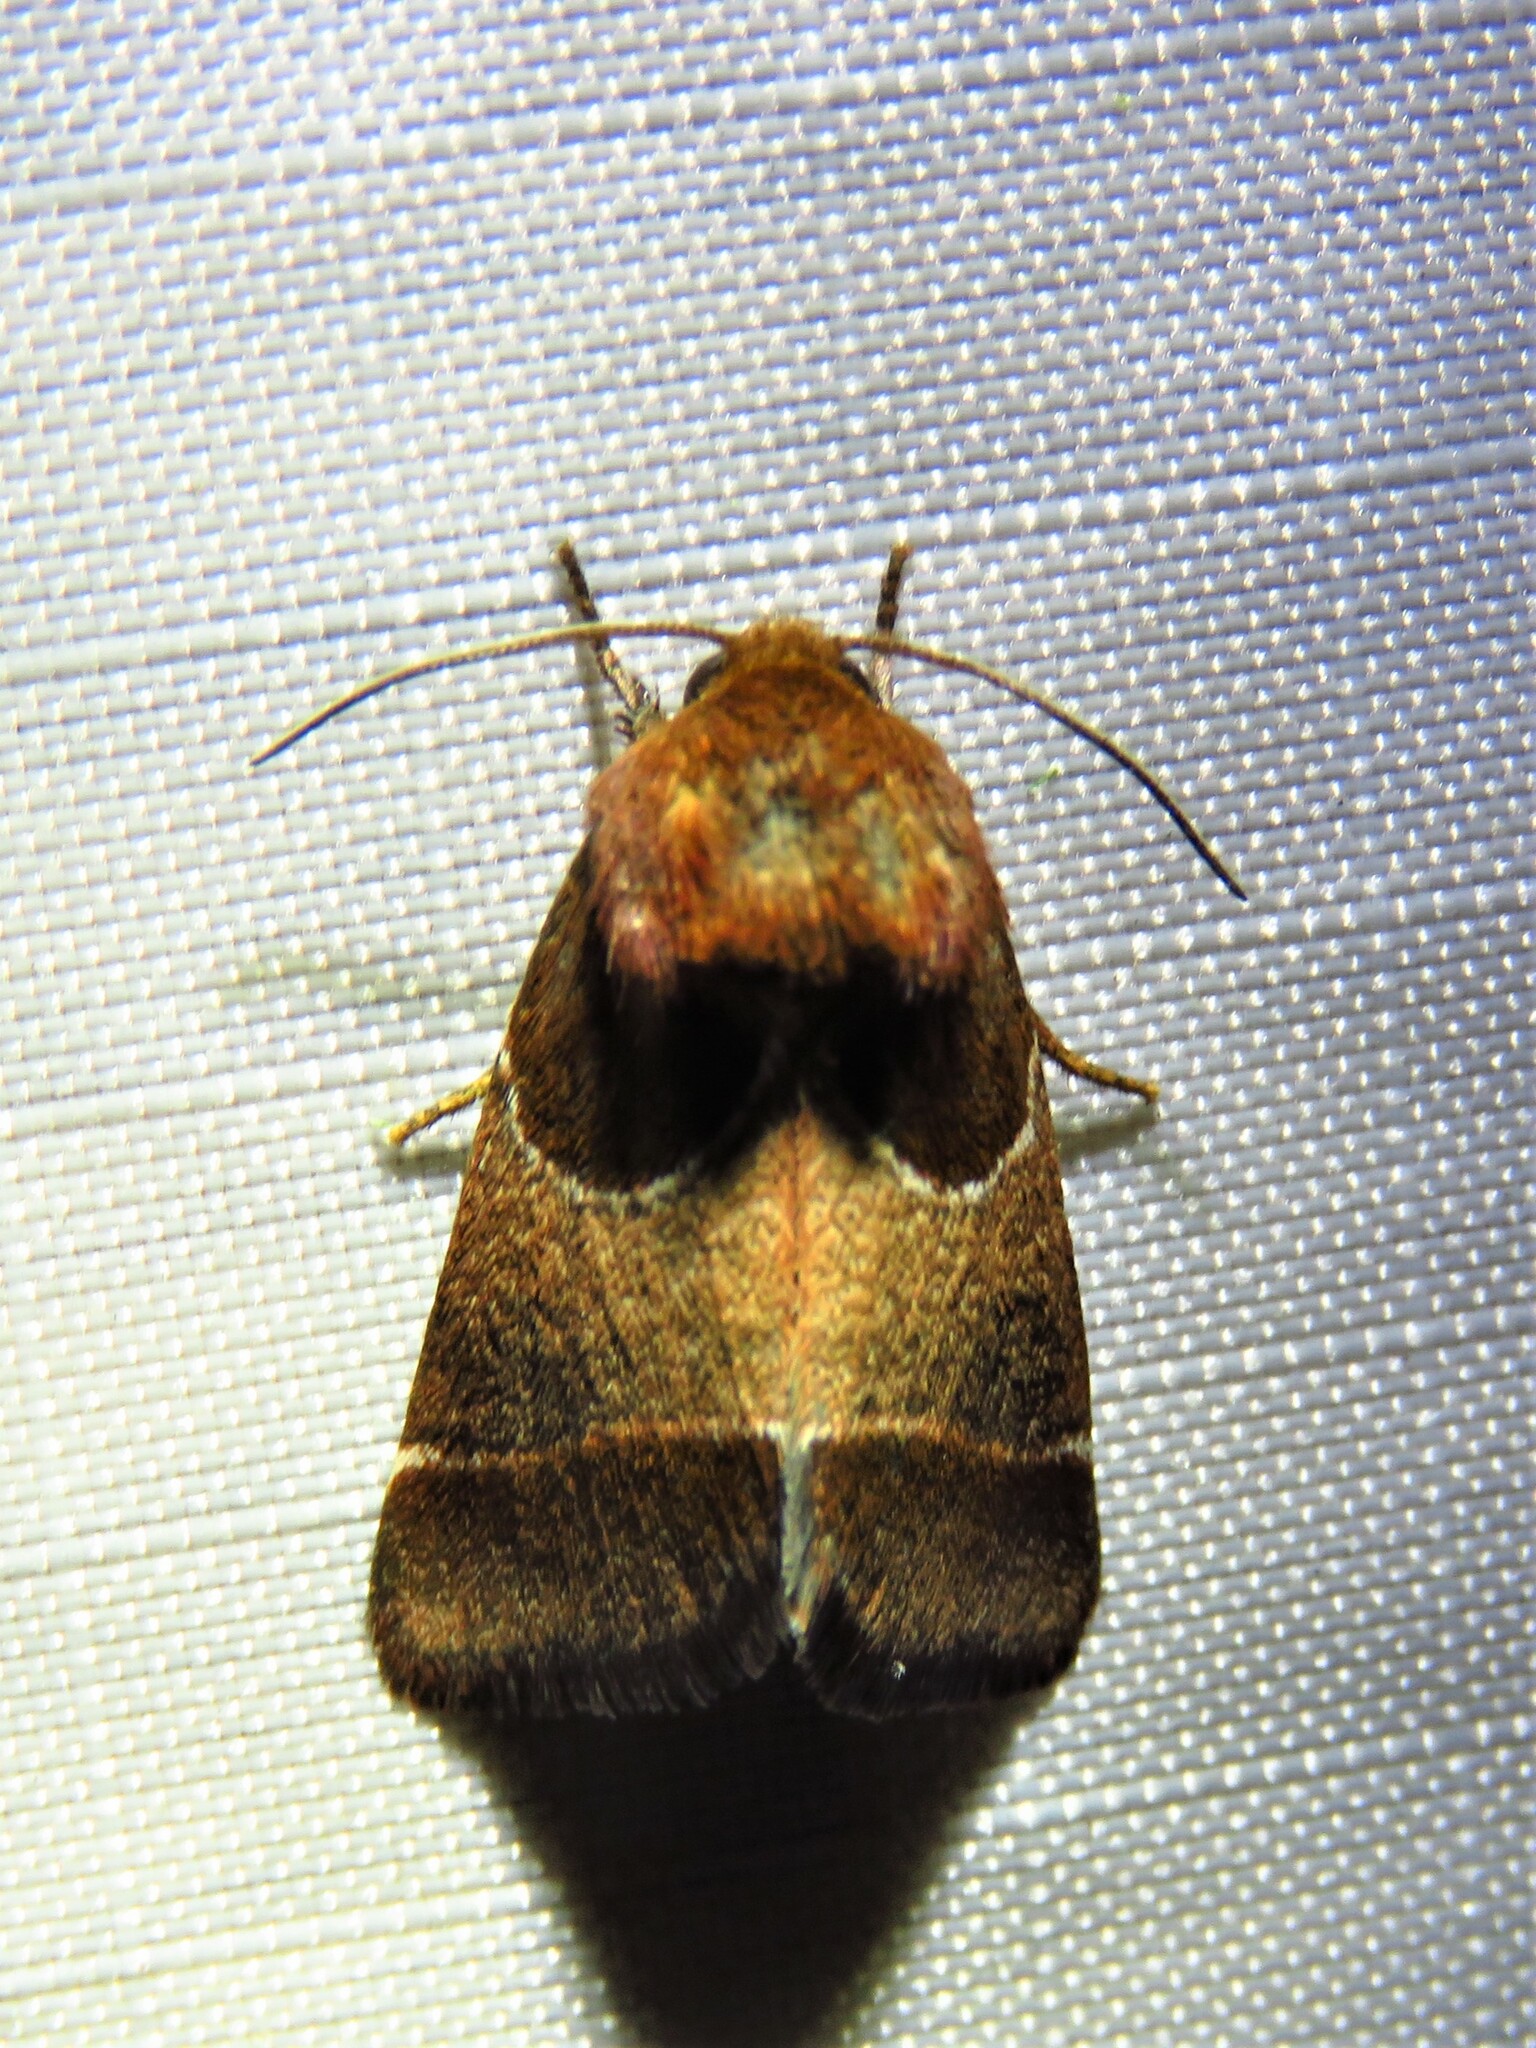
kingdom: Animalia
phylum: Arthropoda
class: Insecta
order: Lepidoptera
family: Noctuidae
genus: Schinia
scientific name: Schinia arcigera
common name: Arcigera flower moth
